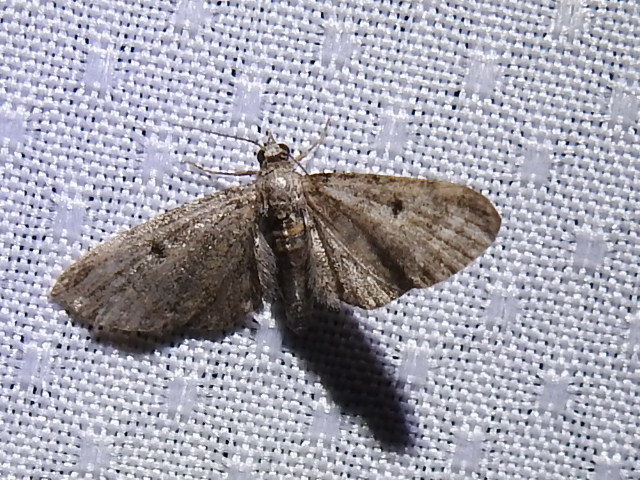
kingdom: Animalia
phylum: Arthropoda
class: Insecta
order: Lepidoptera
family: Geometridae
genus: Eupithecia
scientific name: Eupithecia miserulata
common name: Common eupithecia
